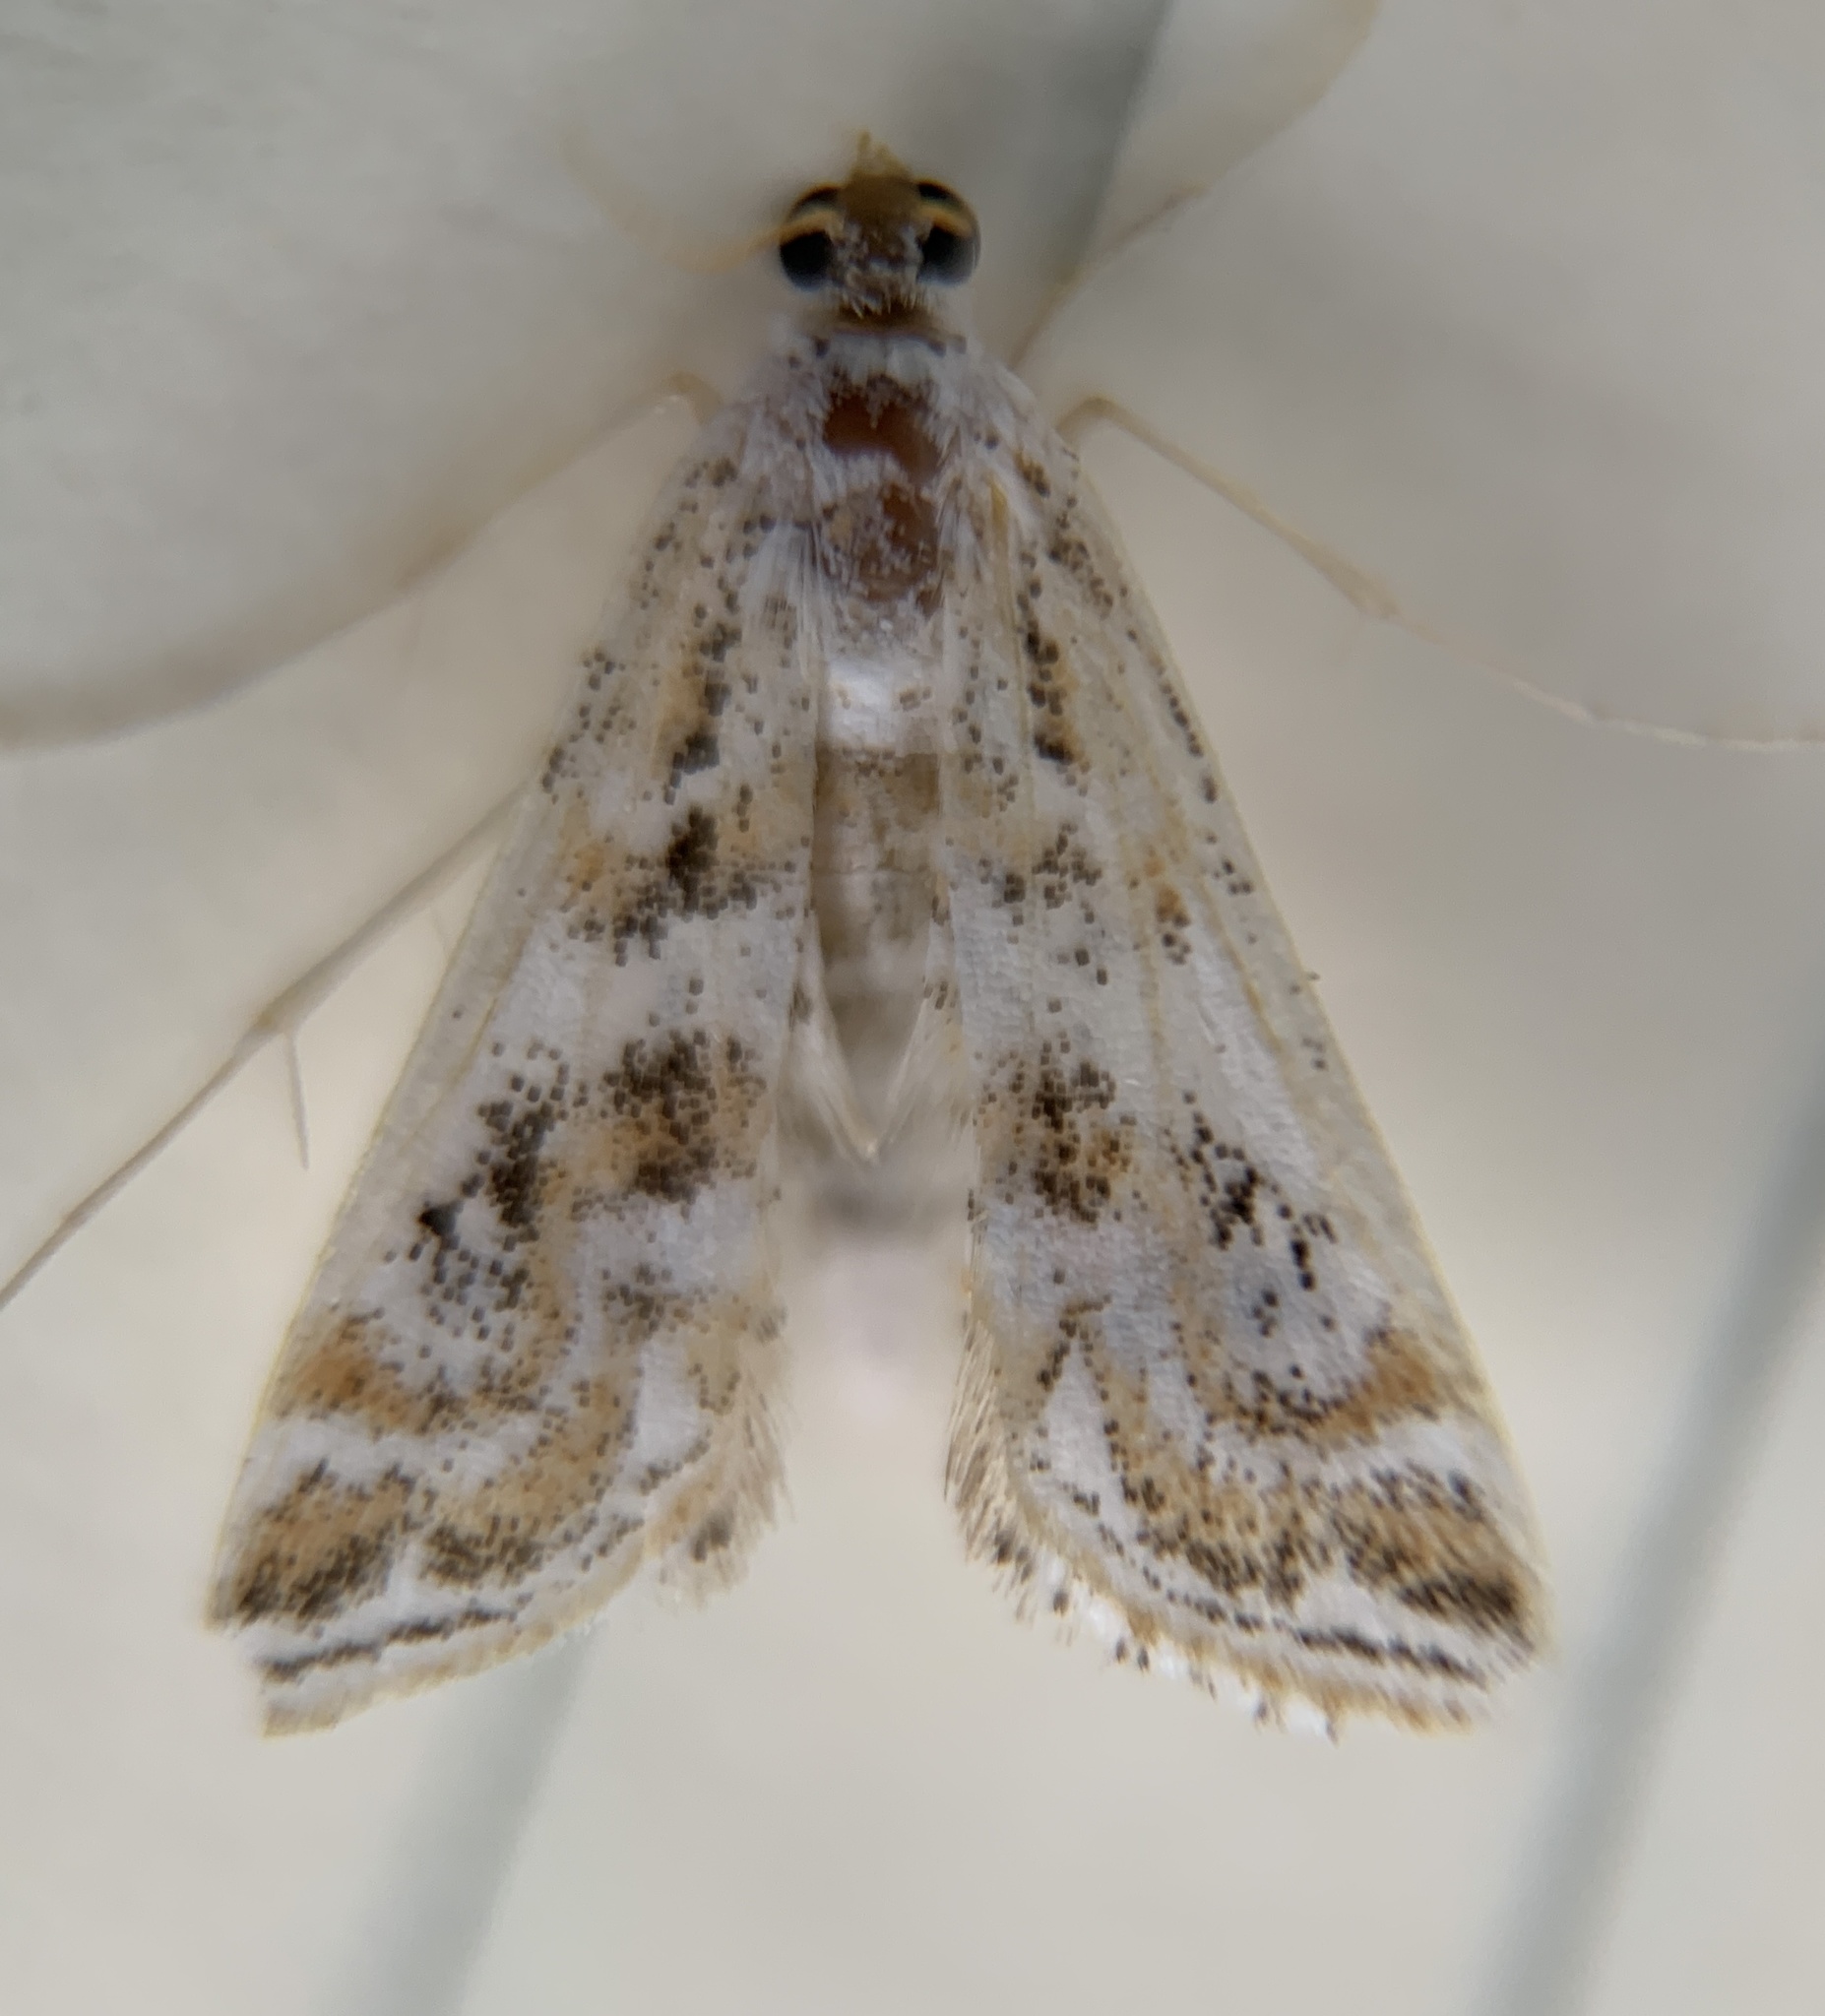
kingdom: Animalia
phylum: Arthropoda
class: Insecta
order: Lepidoptera
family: Crambidae
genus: Parapoynx
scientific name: Parapoynx diminutalis
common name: Hydrilla leafcutter
